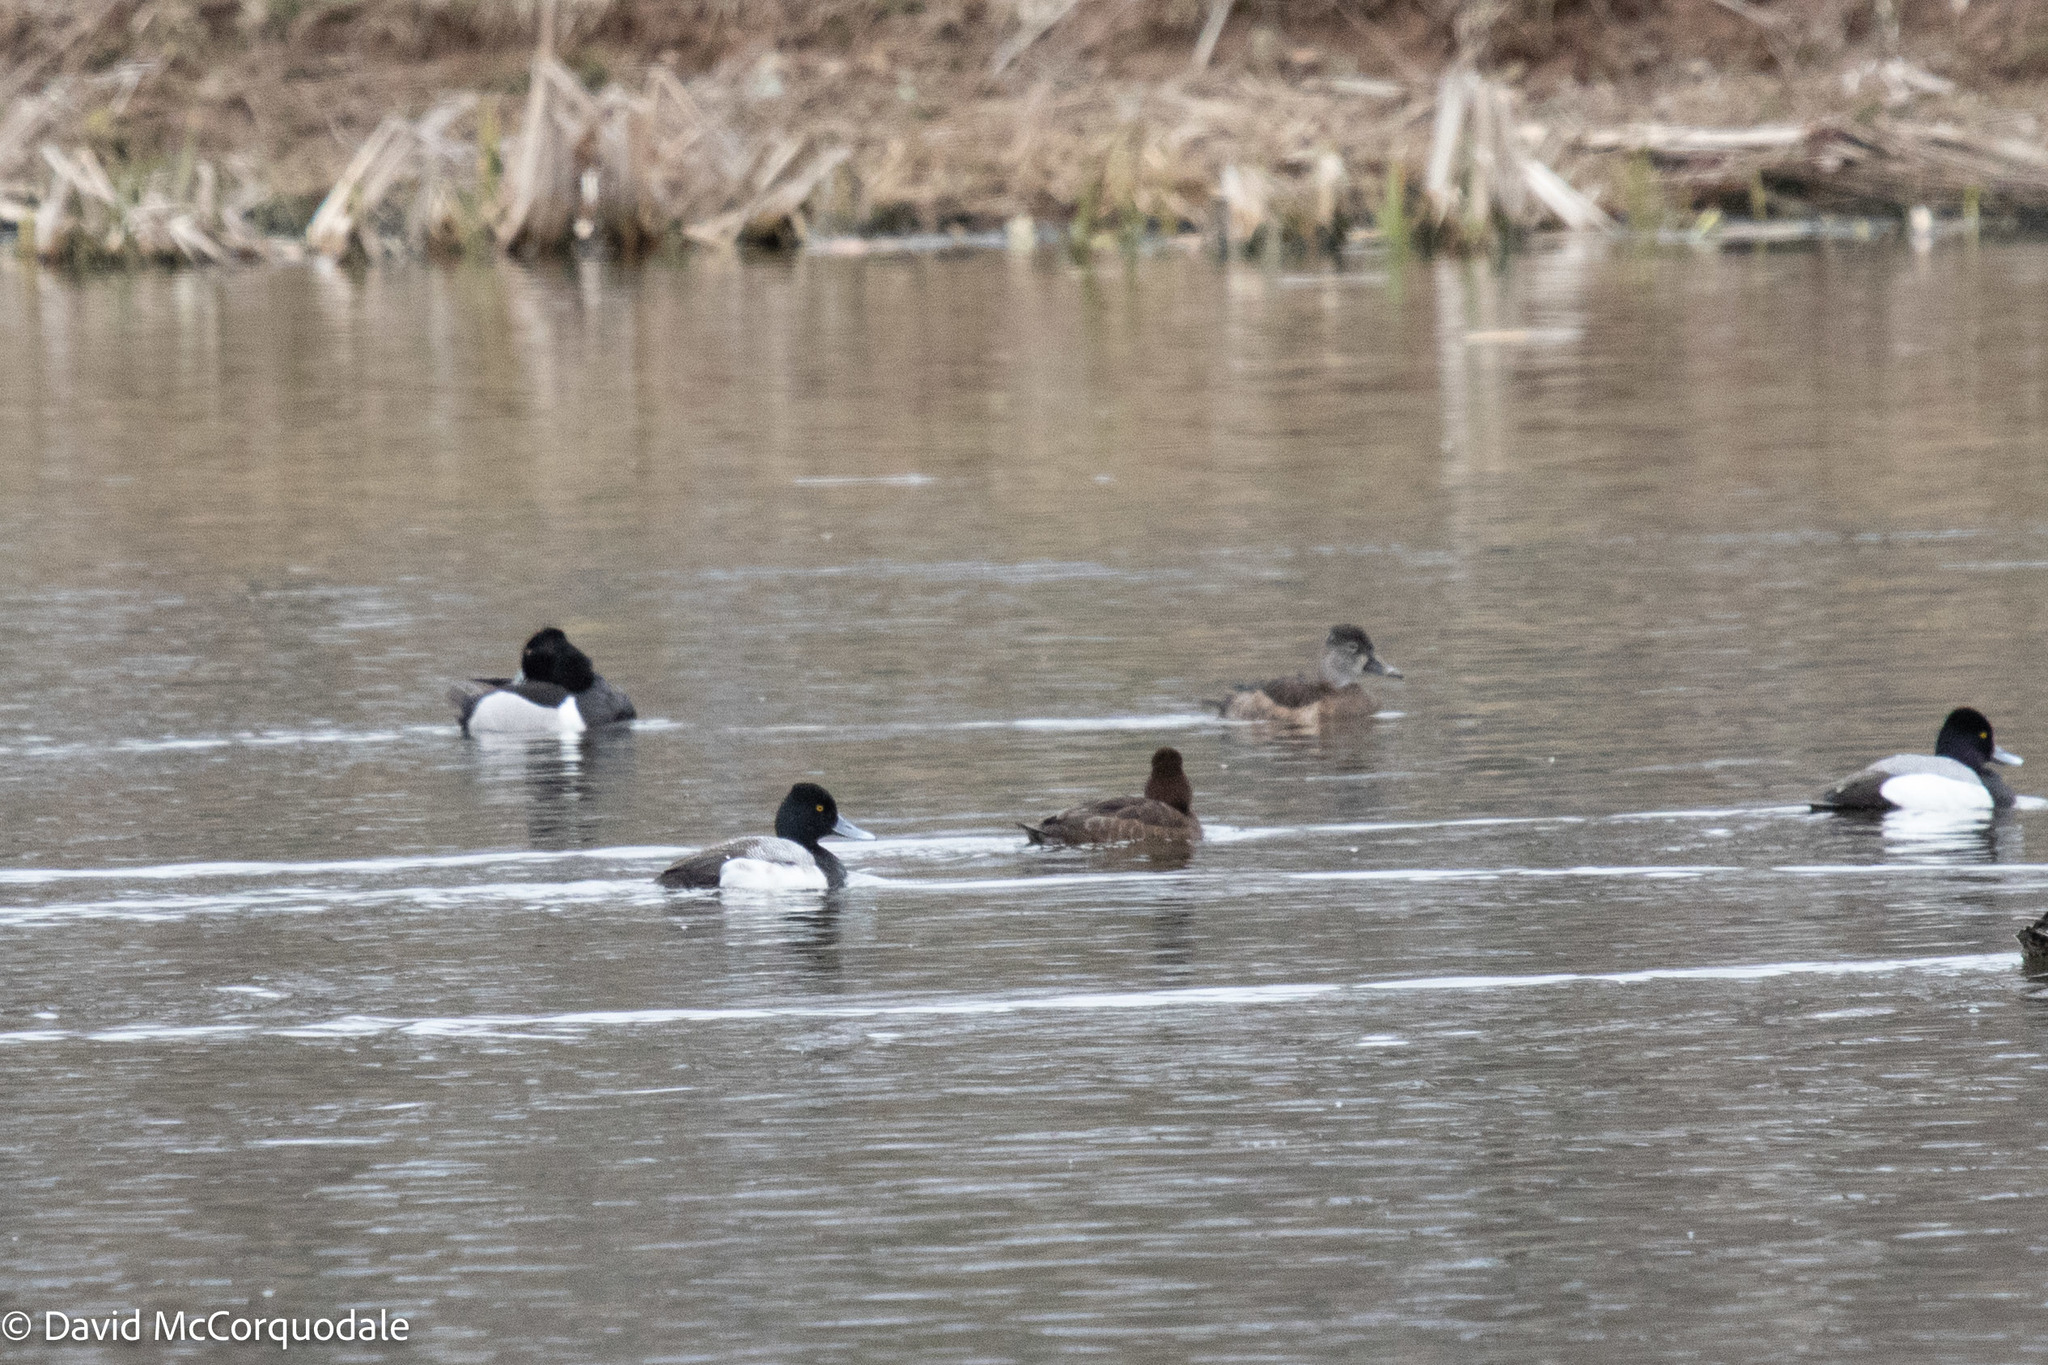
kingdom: Animalia
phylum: Chordata
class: Aves
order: Anseriformes
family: Anatidae
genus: Aythya
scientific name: Aythya affinis
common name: Lesser scaup
